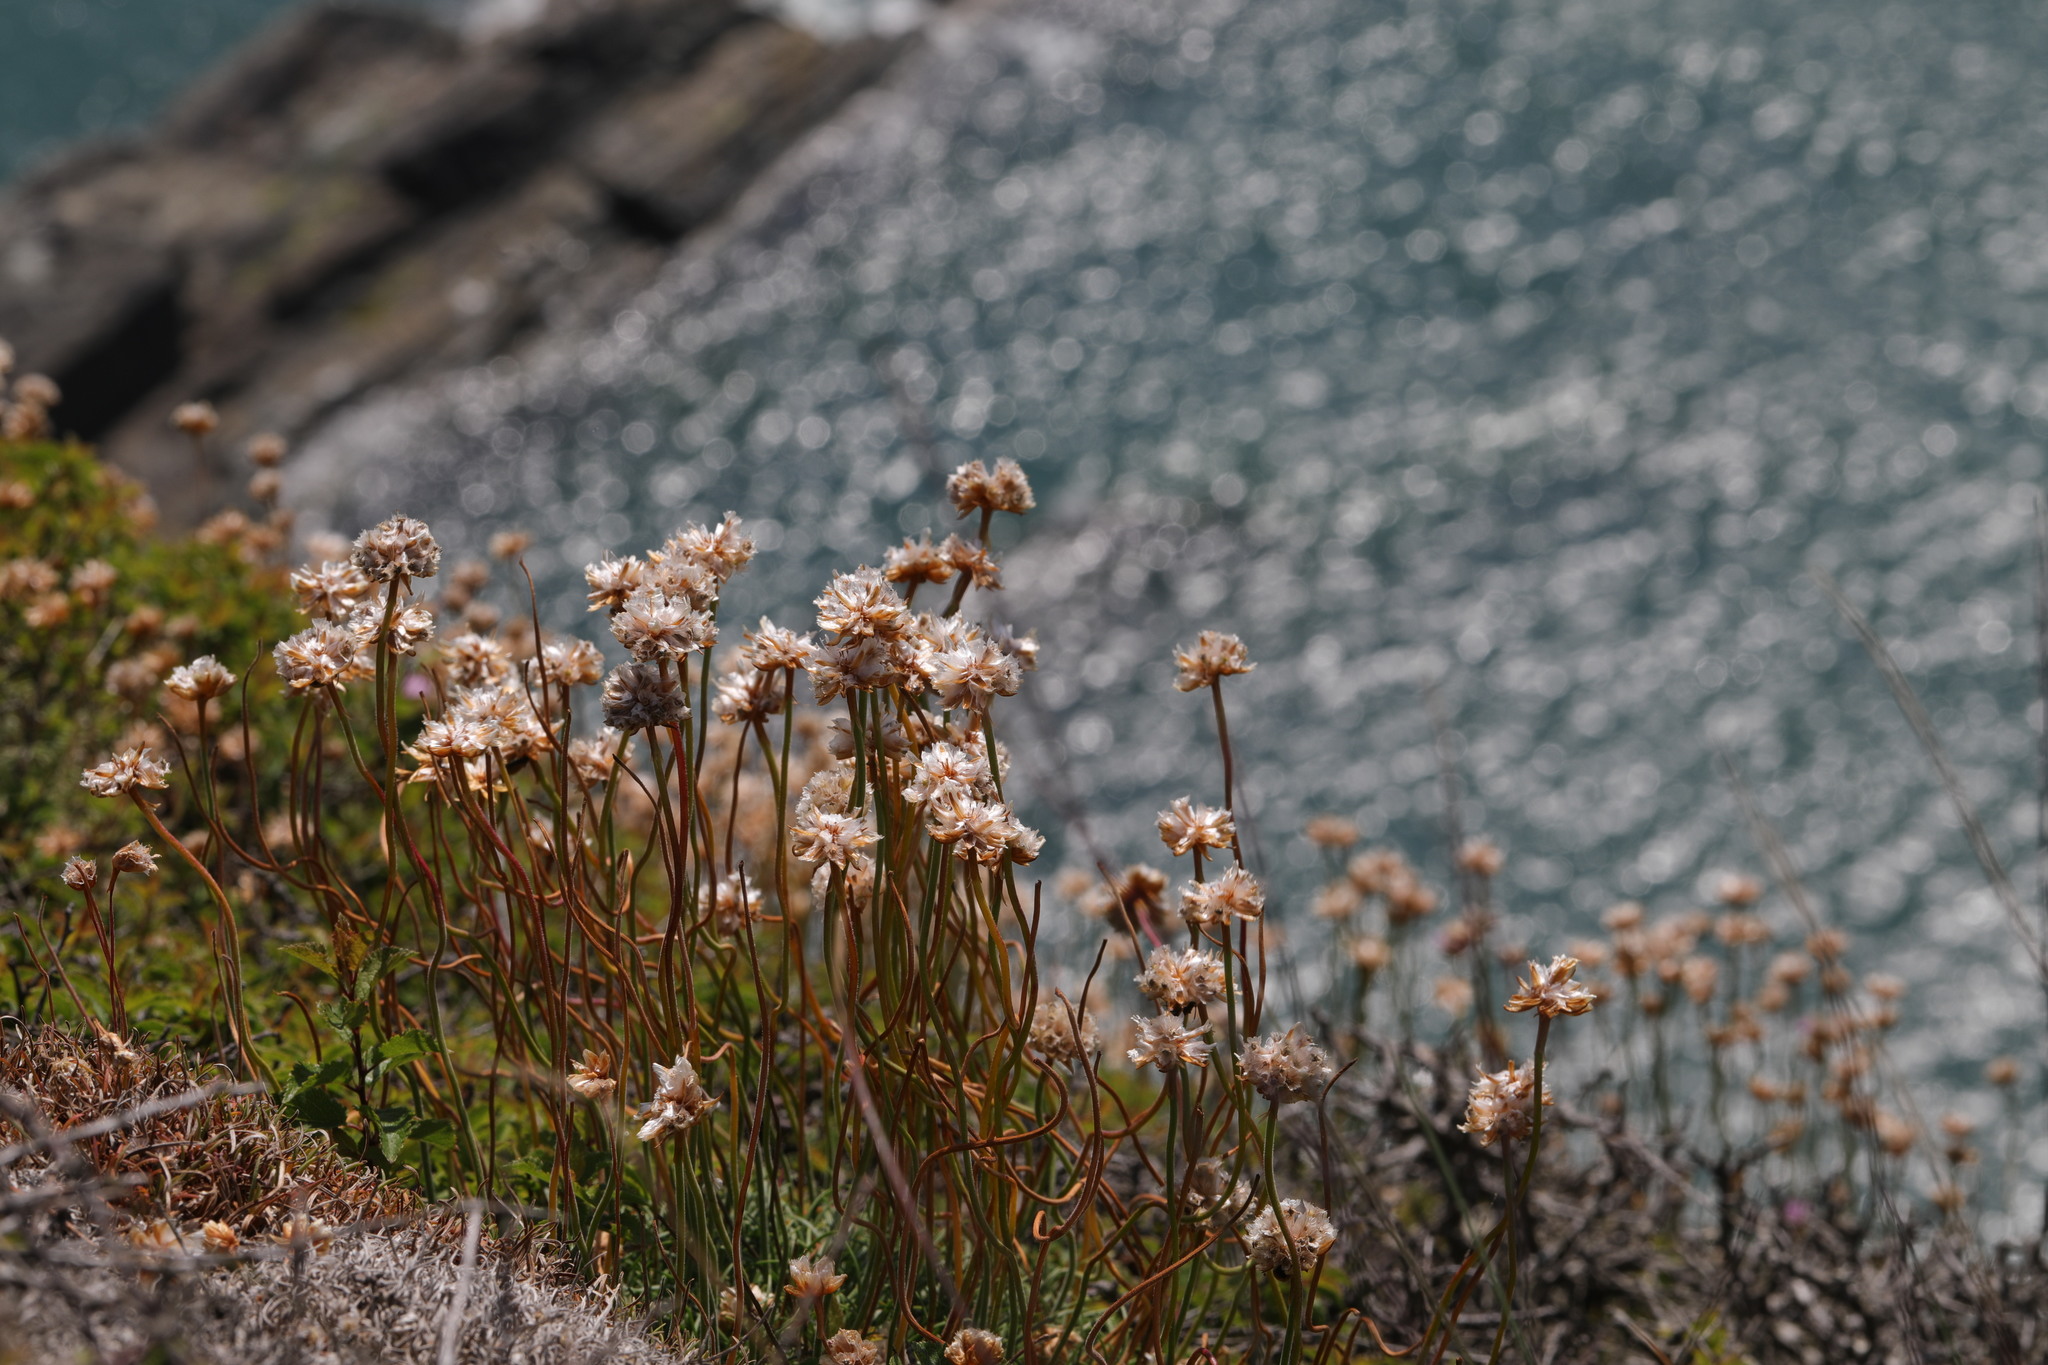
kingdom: Plantae
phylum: Tracheophyta
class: Magnoliopsida
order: Caryophyllales
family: Plumbaginaceae
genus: Armeria
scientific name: Armeria maritima
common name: Thrift
